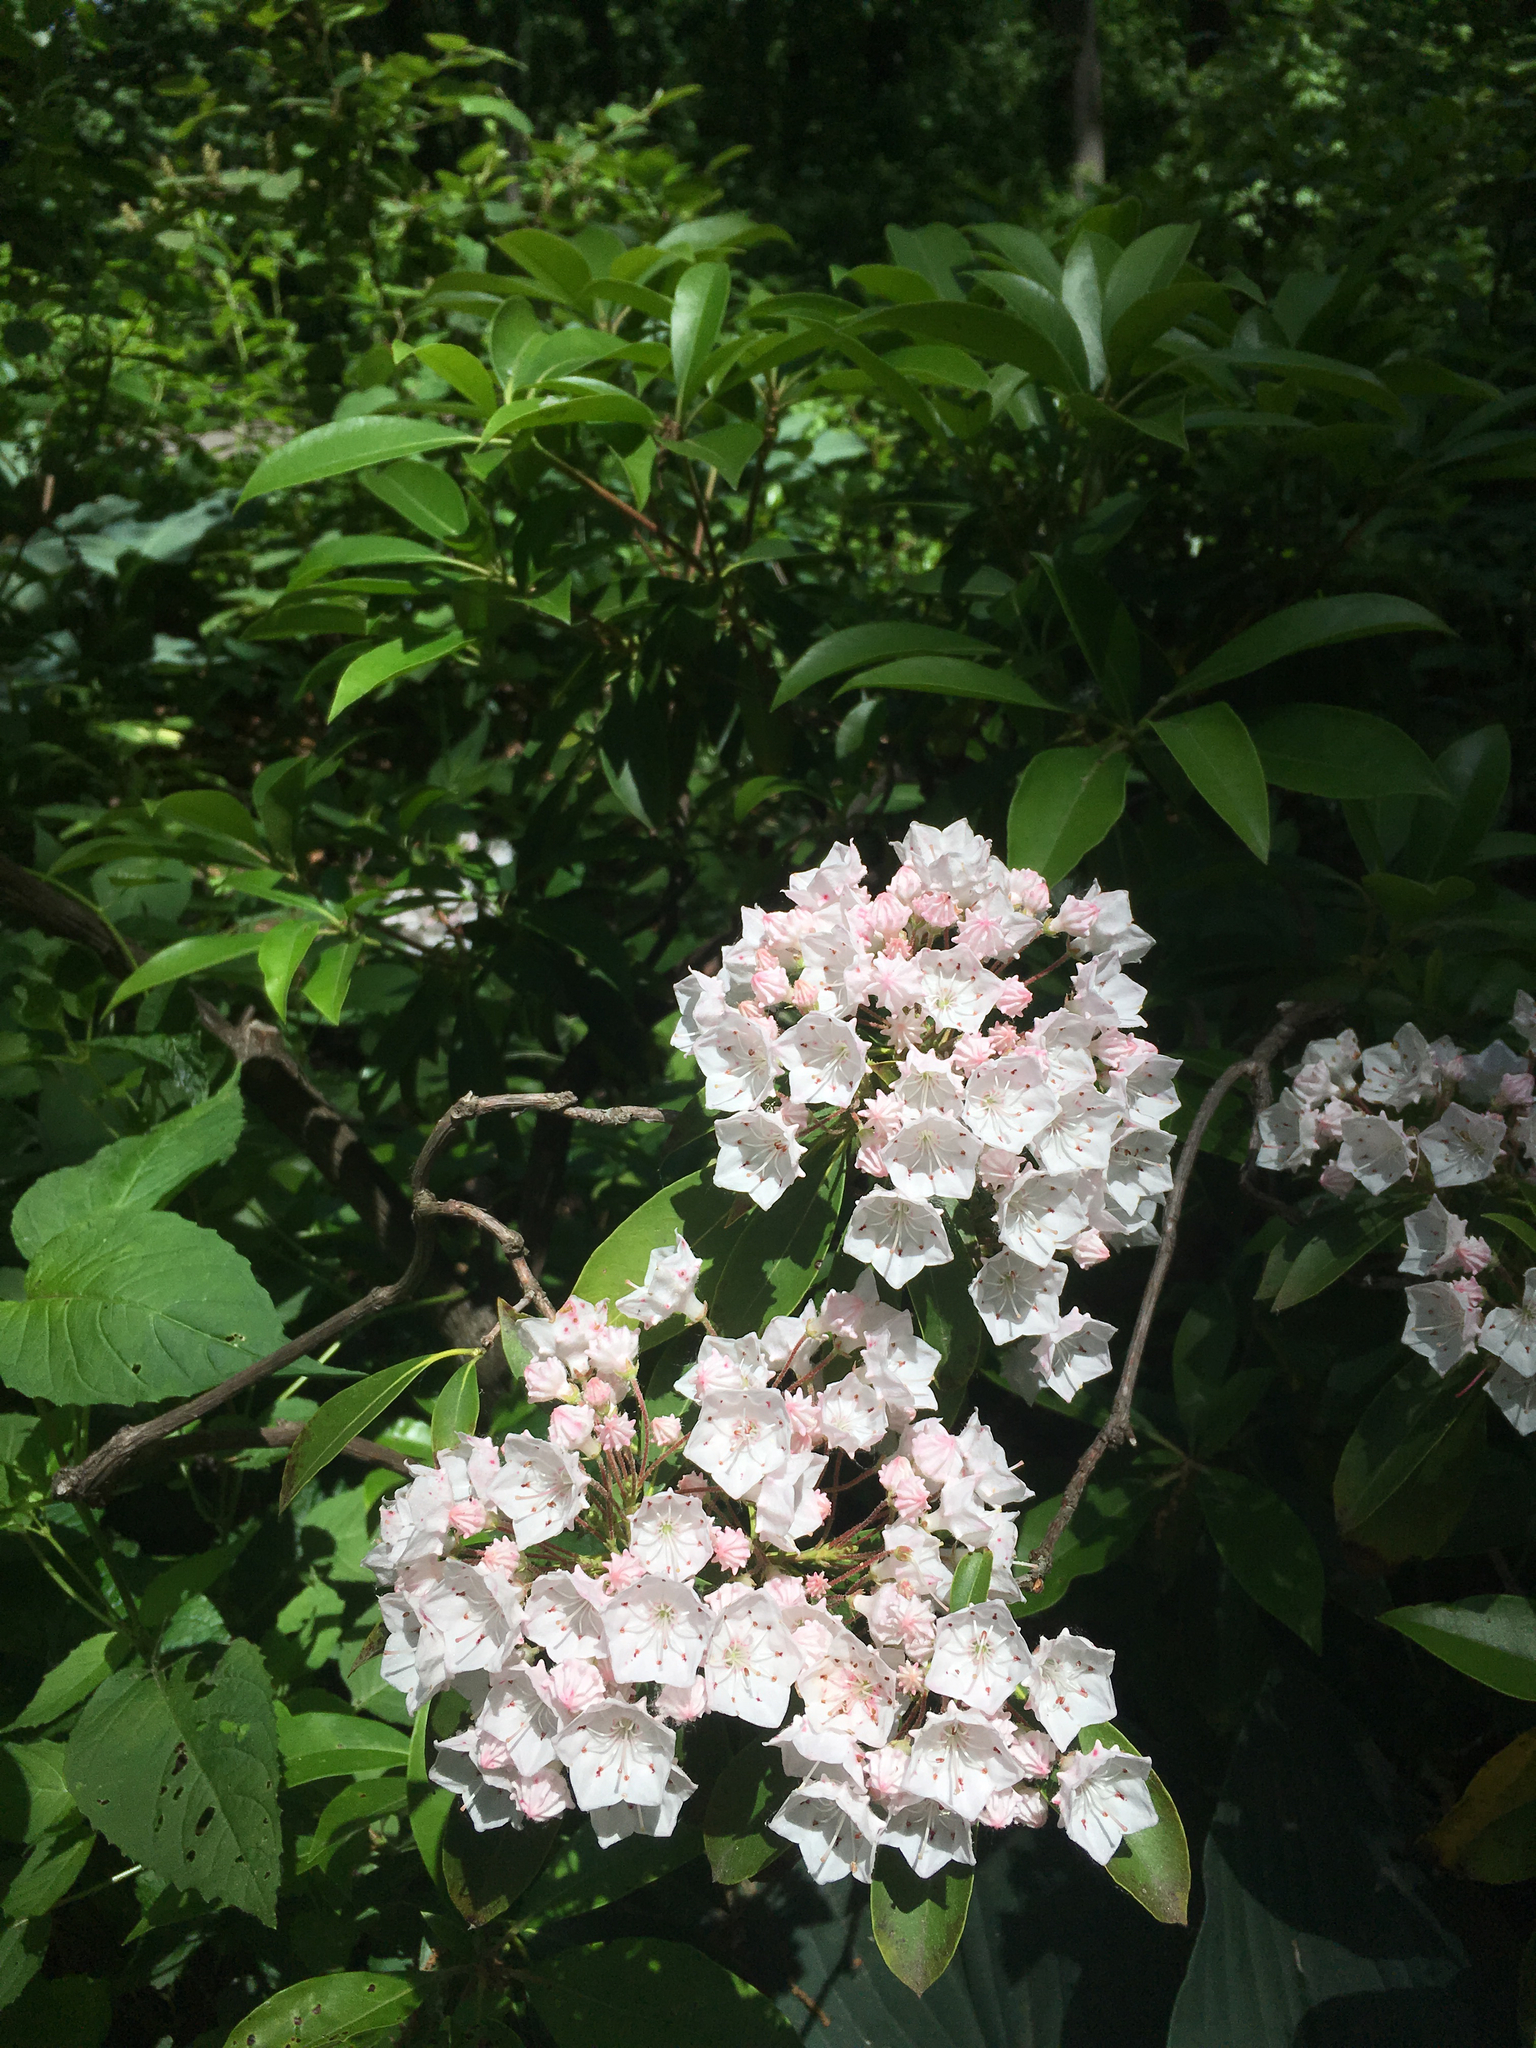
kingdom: Plantae
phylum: Tracheophyta
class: Magnoliopsida
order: Ericales
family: Ericaceae
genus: Kalmia
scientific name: Kalmia latifolia
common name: Mountain-laurel
